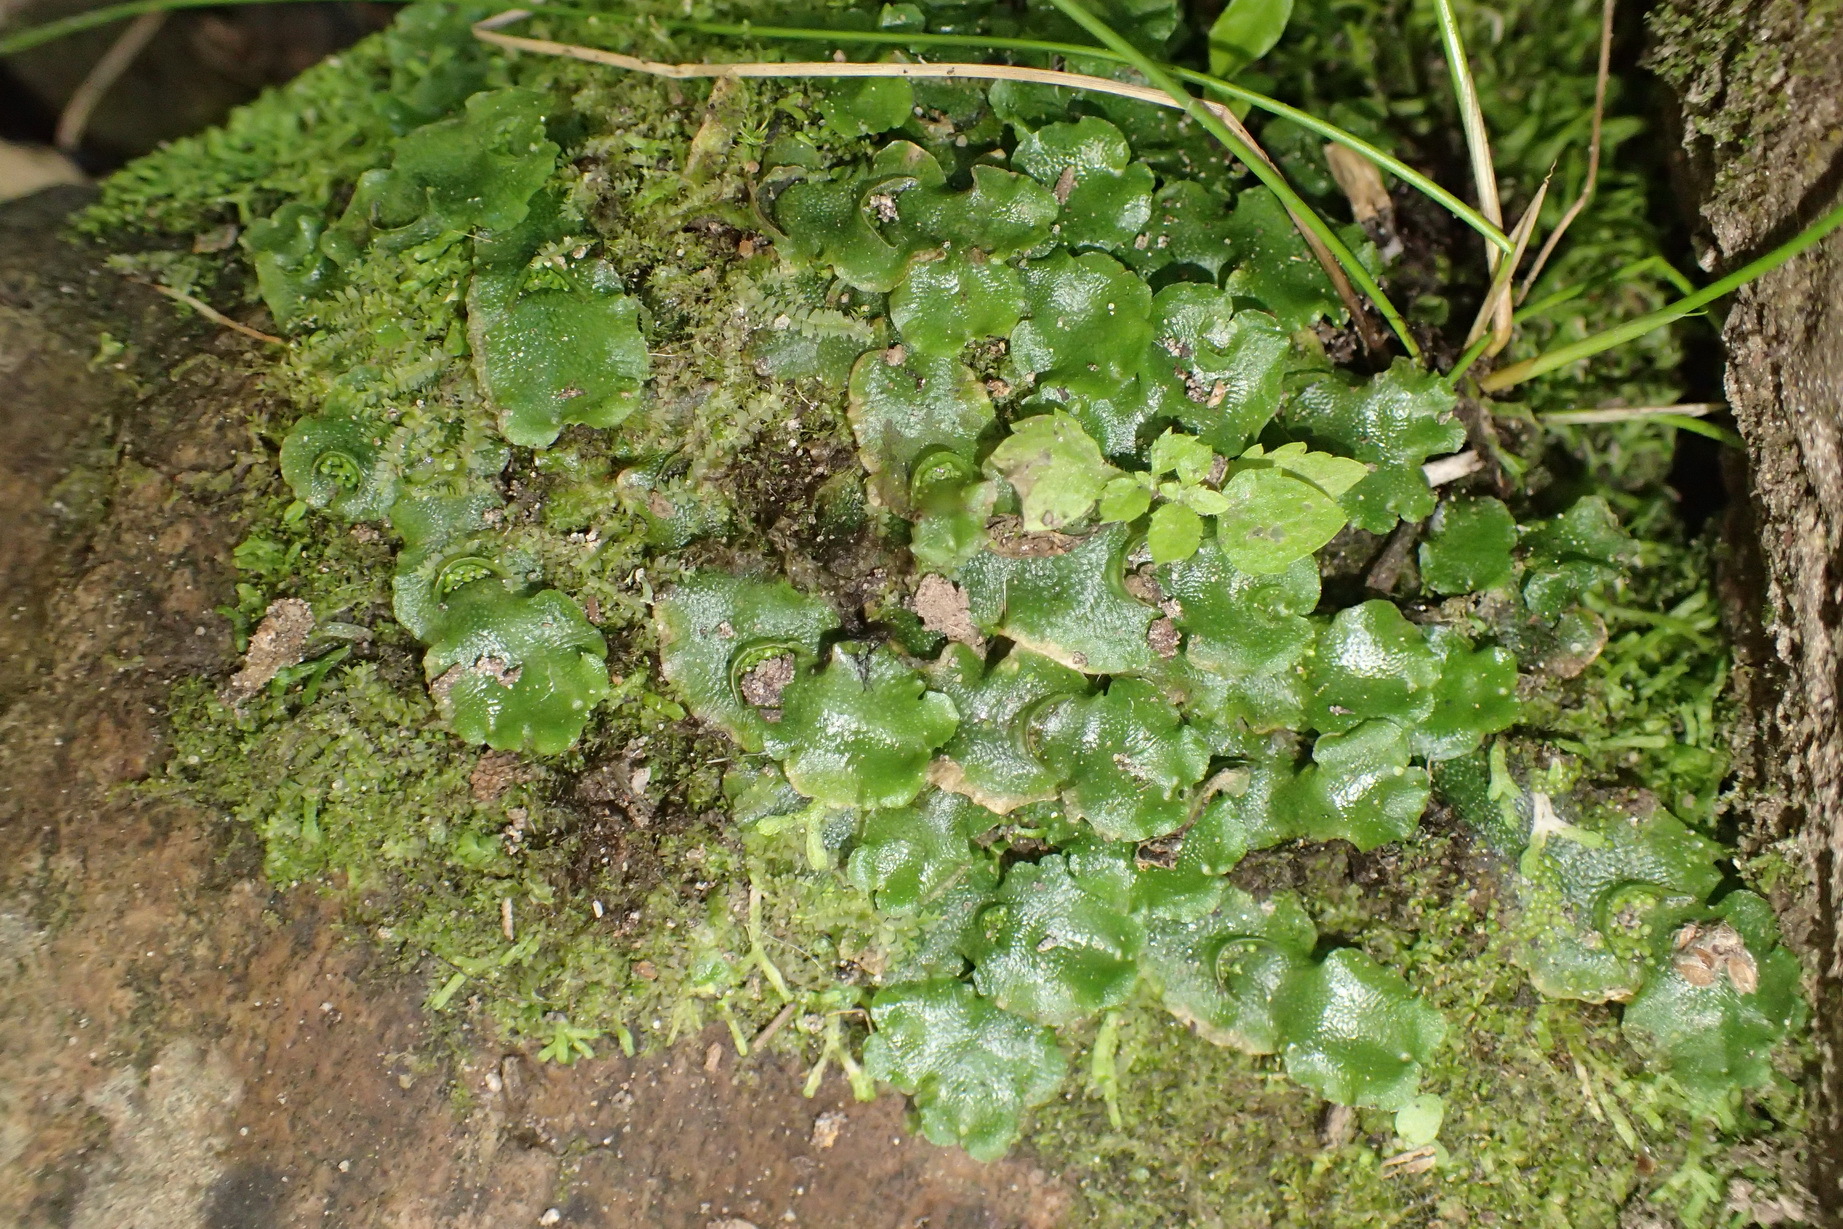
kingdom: Plantae
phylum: Marchantiophyta
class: Marchantiopsida
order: Lunulariales
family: Lunulariaceae
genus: Lunularia
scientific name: Lunularia cruciata
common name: Crescent-cup liverwort
